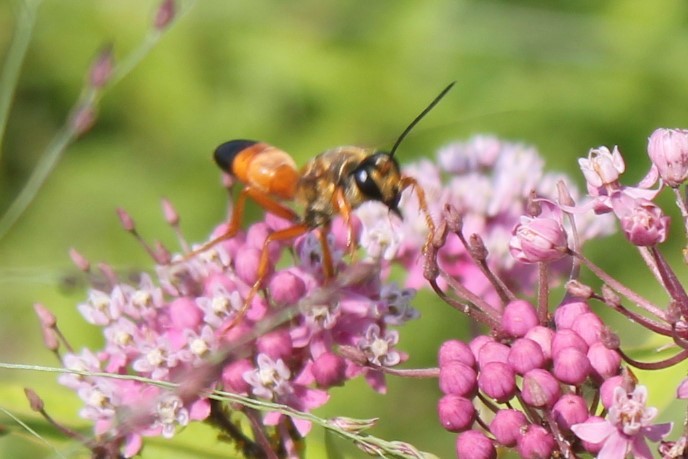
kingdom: Animalia
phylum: Arthropoda
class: Insecta
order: Hymenoptera
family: Sphecidae
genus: Sphex
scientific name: Sphex ichneumoneus
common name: Great golden digger wasp
